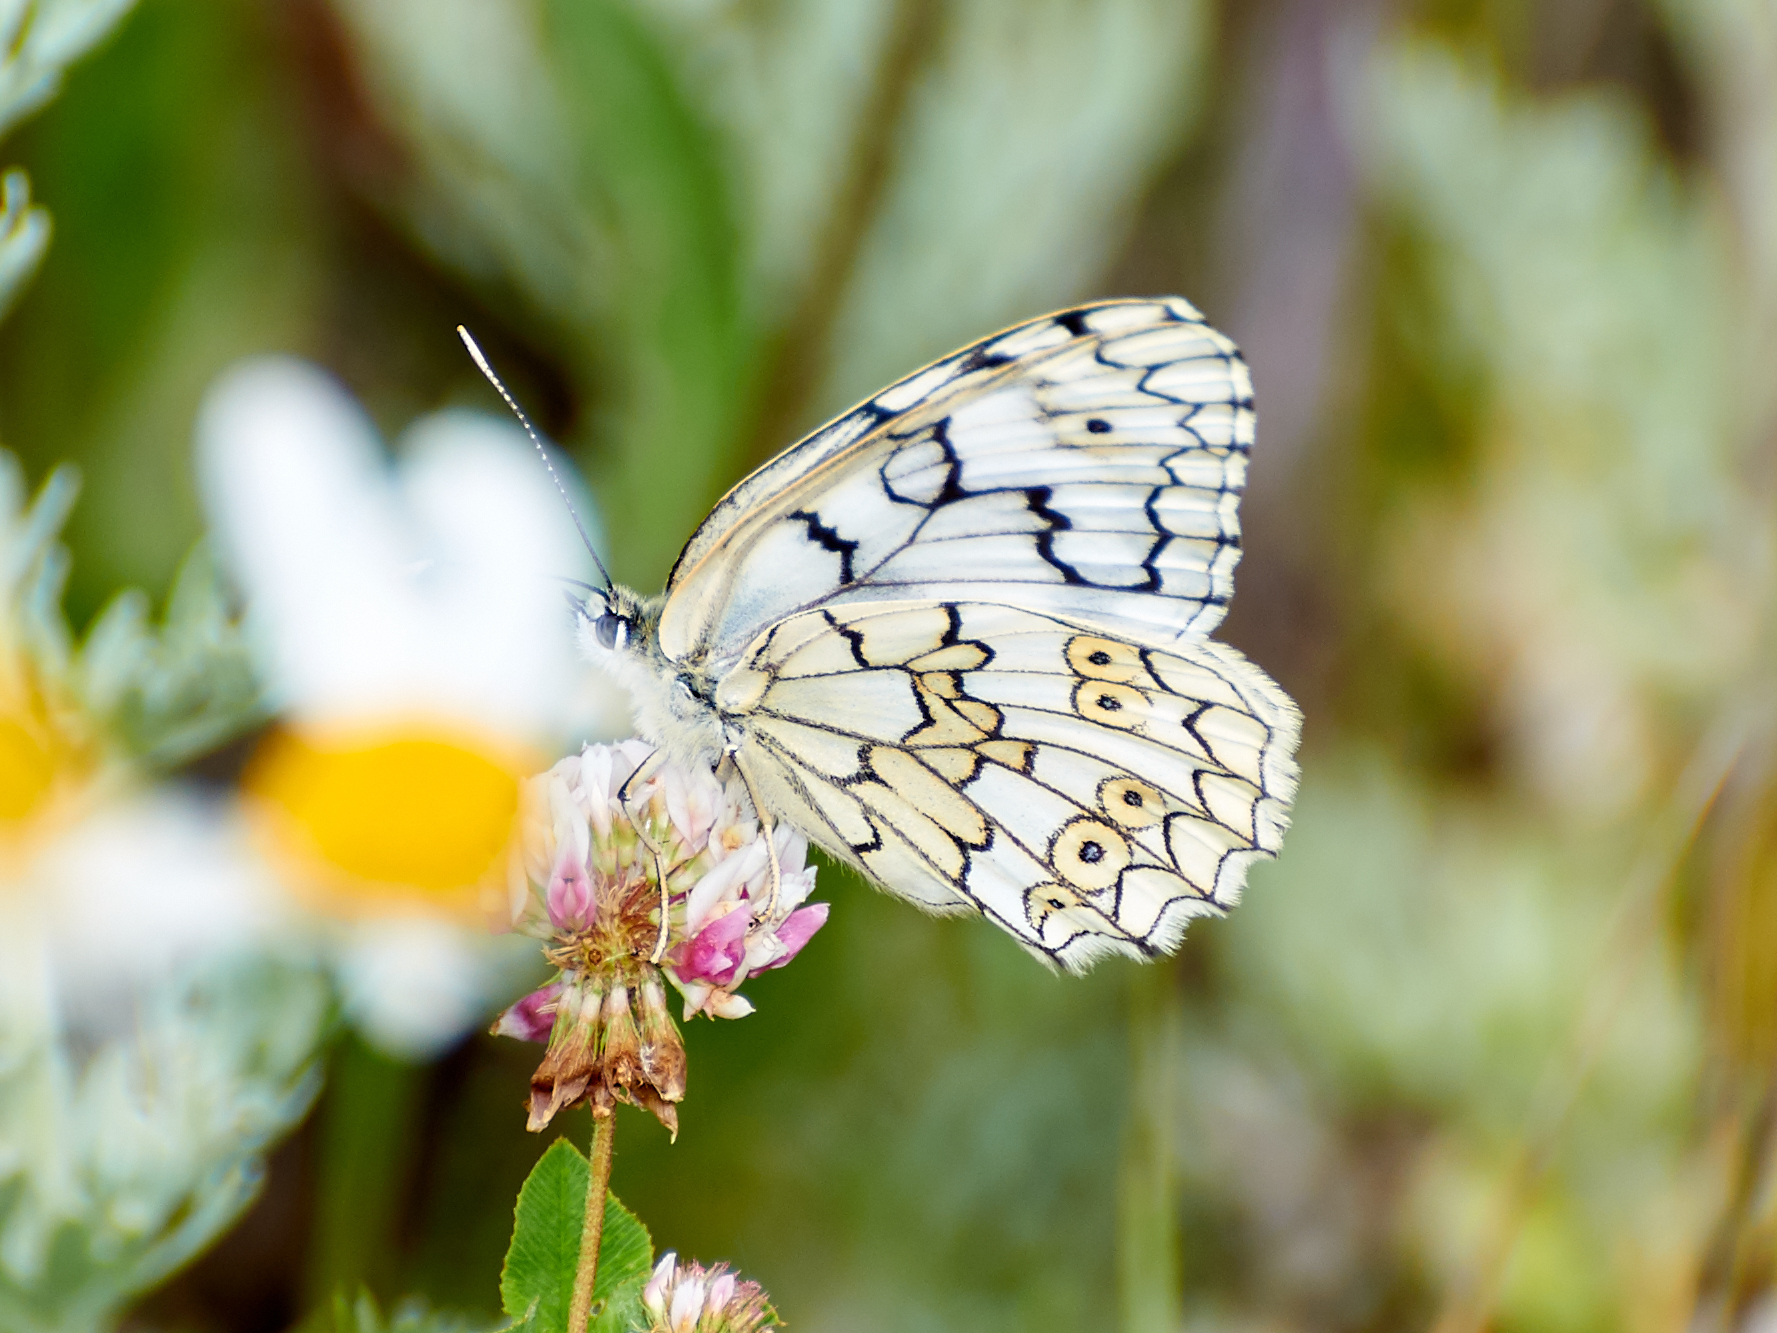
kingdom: Animalia
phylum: Arthropoda
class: Insecta
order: Lepidoptera
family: Nymphalidae
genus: Melanargia
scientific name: Melanargia japygia
